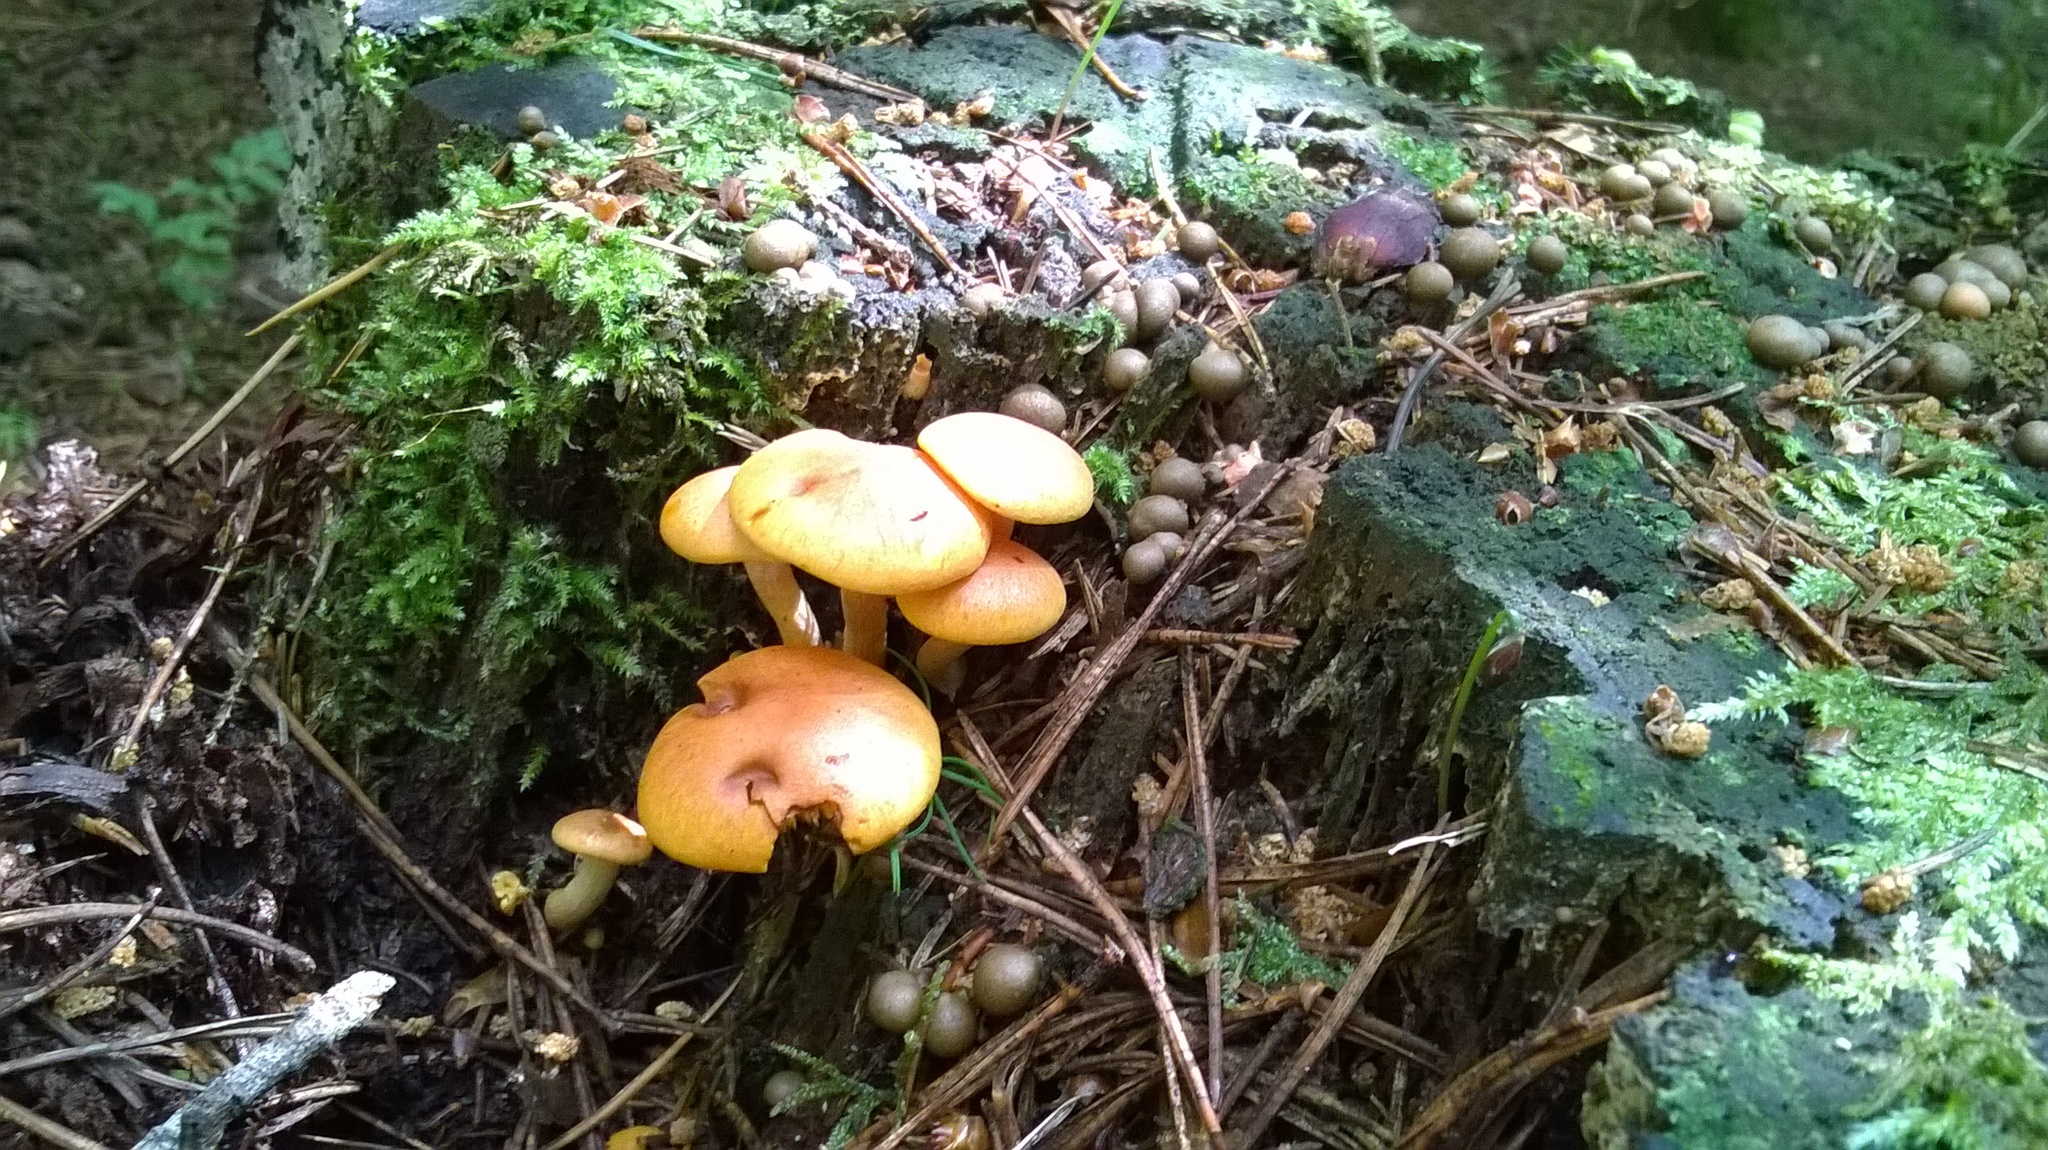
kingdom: Protozoa
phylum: Mycetozoa
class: Myxomycetes
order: Cribrariales
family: Tubiferaceae
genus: Lycogala
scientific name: Lycogala epidendrum
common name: Wolf's milk
